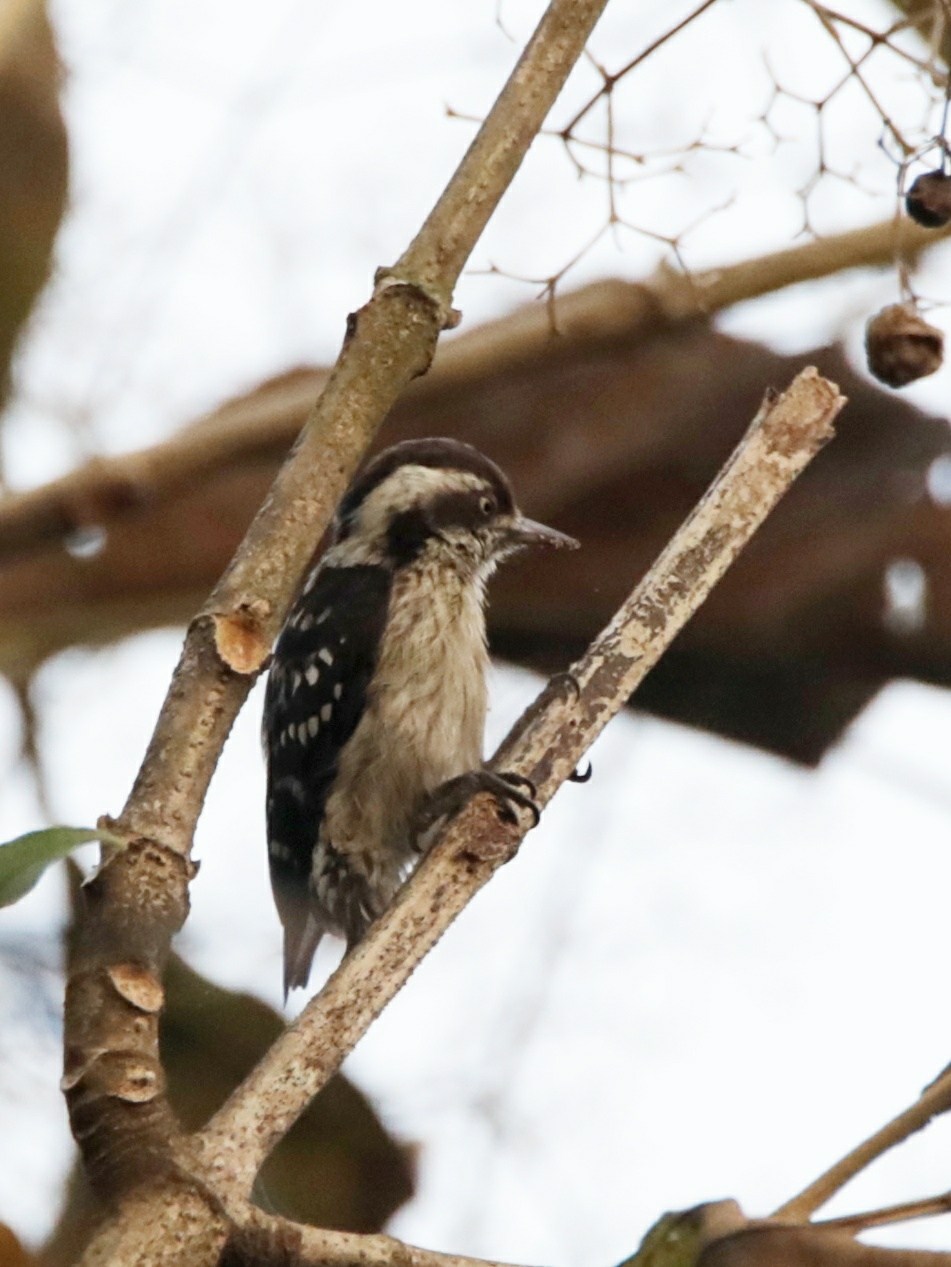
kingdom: Animalia
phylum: Chordata
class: Aves
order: Piciformes
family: Picidae
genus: Yungipicus
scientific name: Yungipicus nanus
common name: Brown-capped pygmy woodpecker
